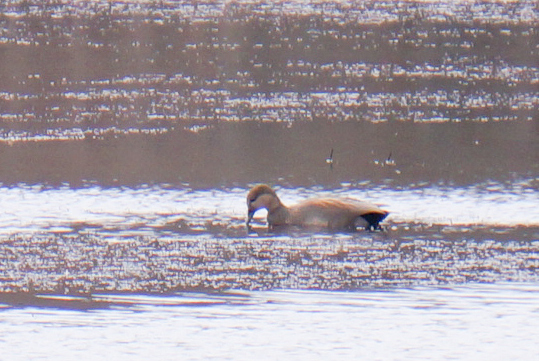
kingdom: Animalia
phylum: Chordata
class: Aves
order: Anseriformes
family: Anatidae
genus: Mareca
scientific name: Mareca strepera
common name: Gadwall
